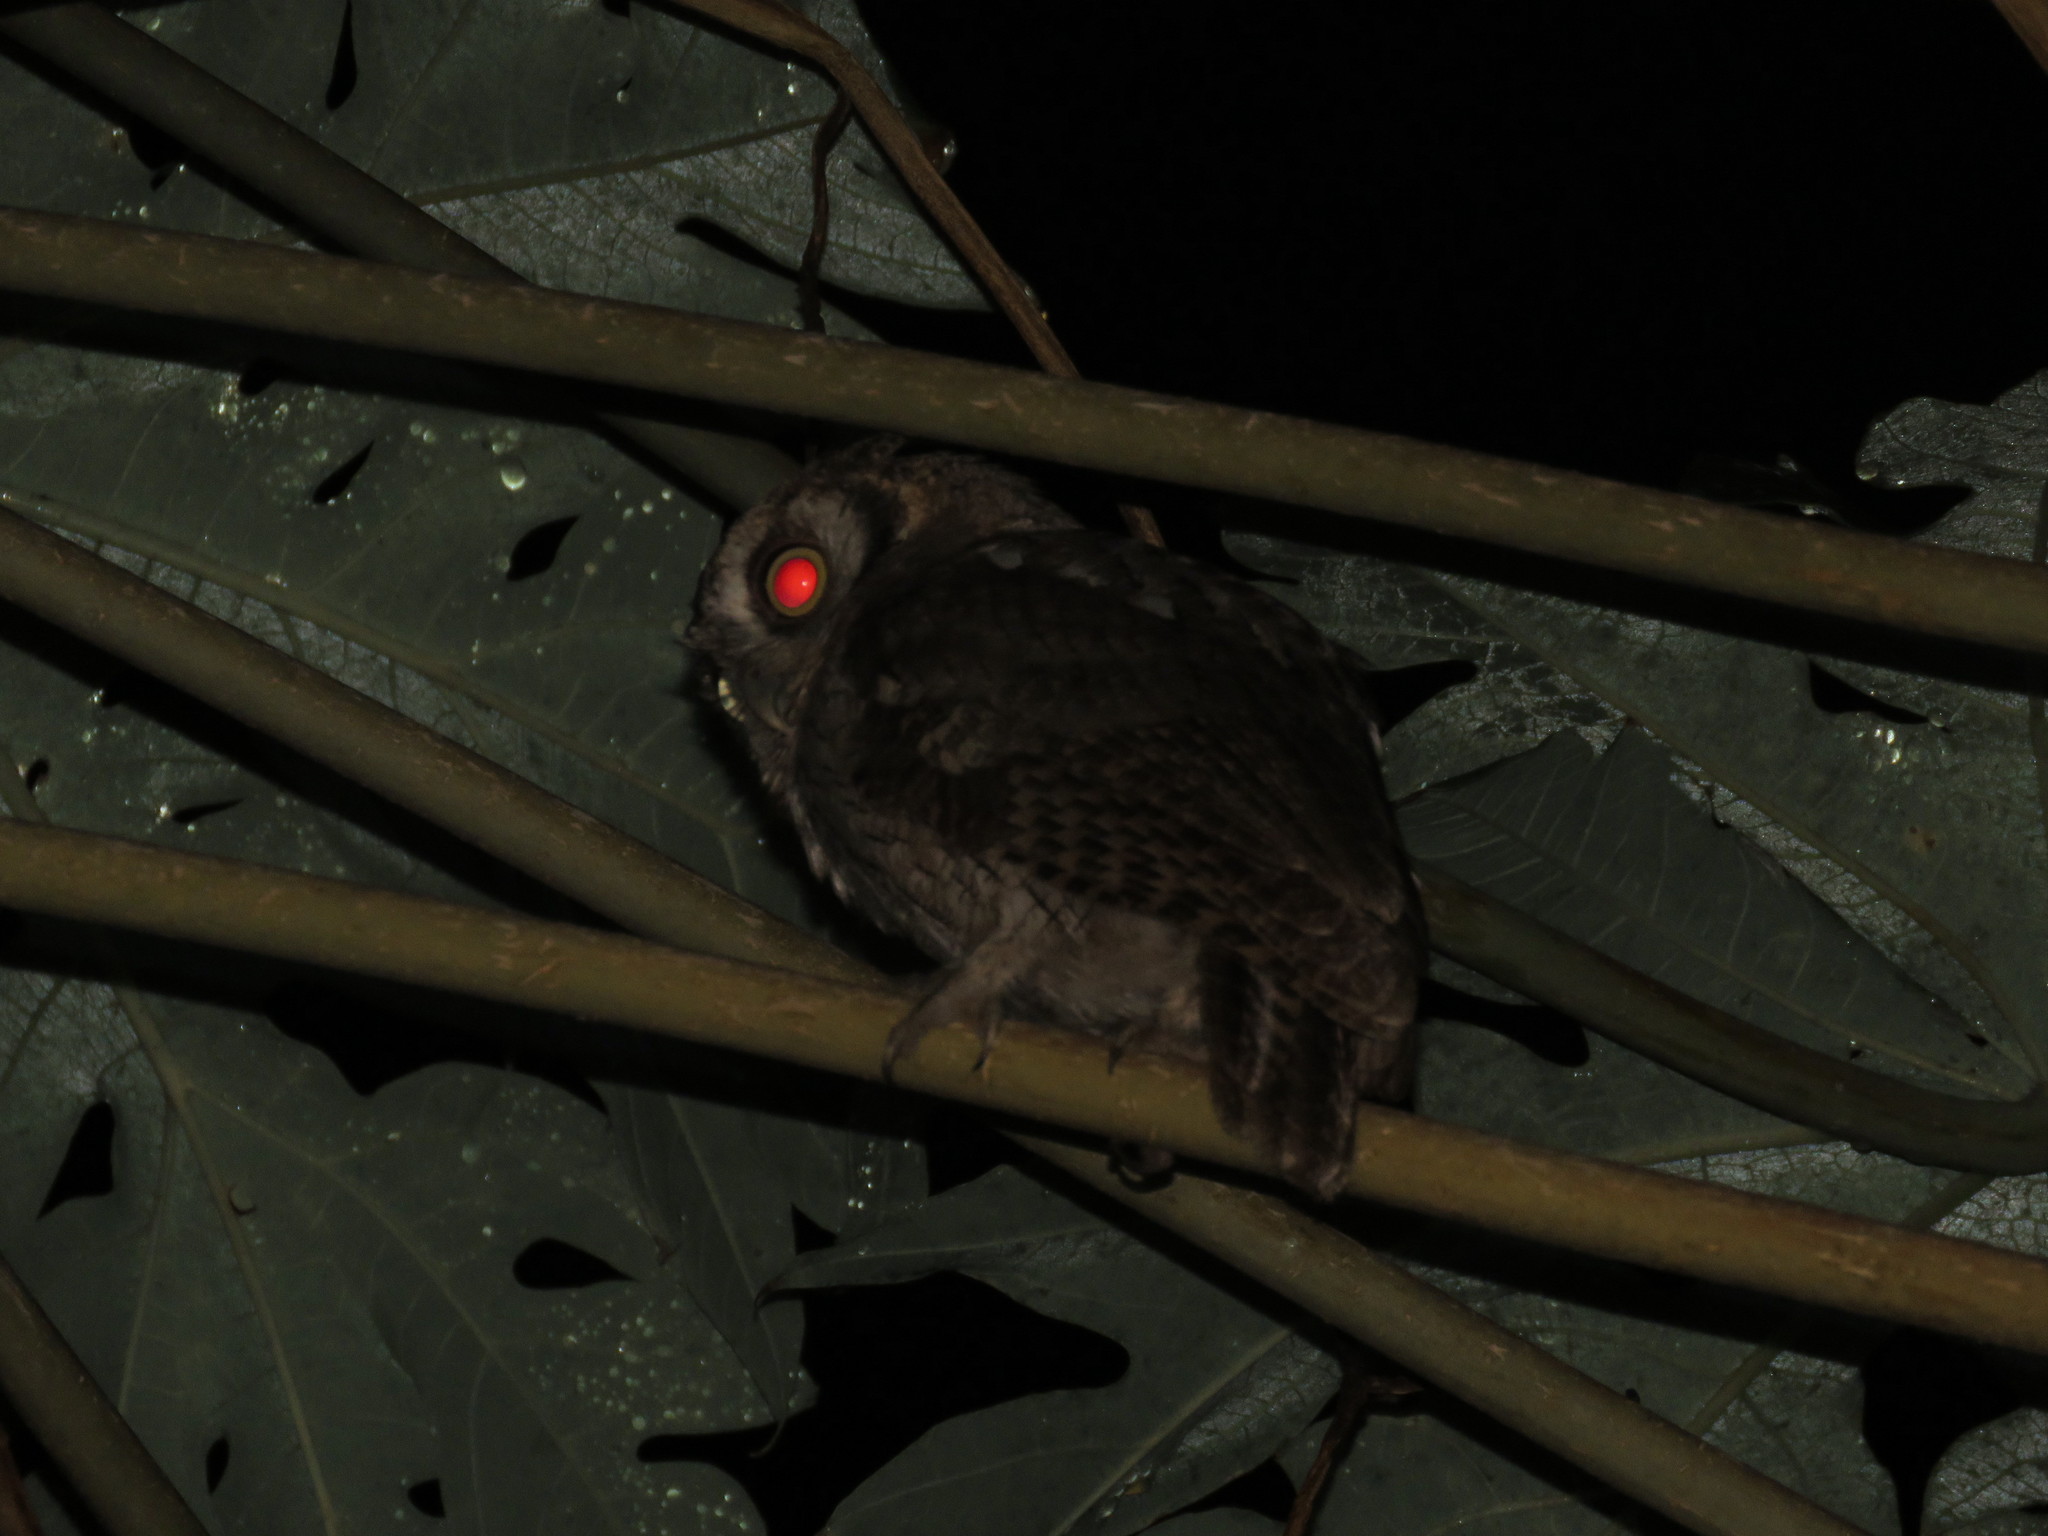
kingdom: Animalia
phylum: Chordata
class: Aves
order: Strigiformes
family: Strigidae
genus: Megascops
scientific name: Megascops choliba
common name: Tropical screech-owl
